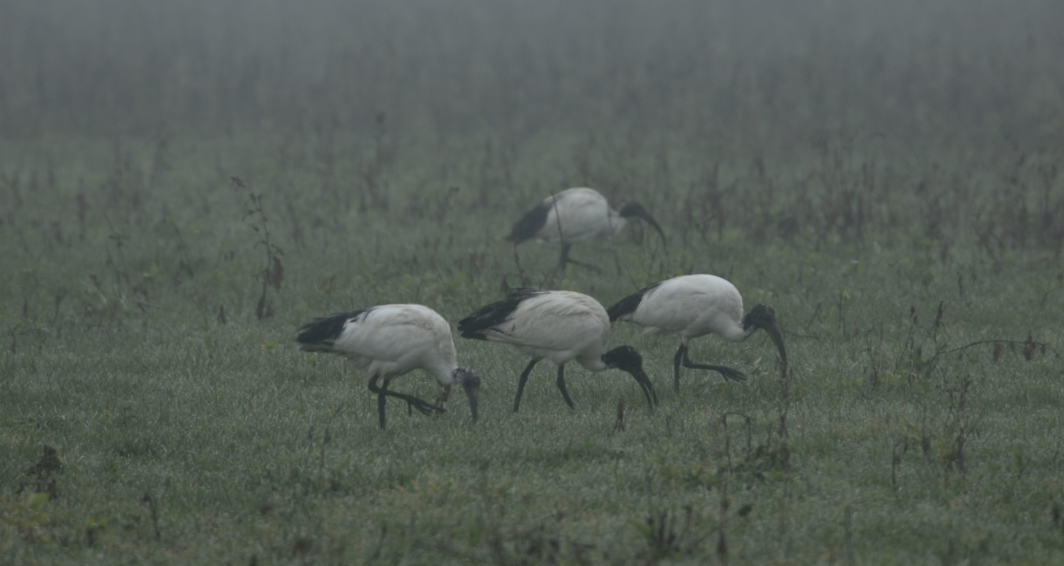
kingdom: Animalia
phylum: Chordata
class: Aves
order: Pelecaniformes
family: Threskiornithidae
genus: Threskiornis
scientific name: Threskiornis aethiopicus
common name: Sacred ibis
